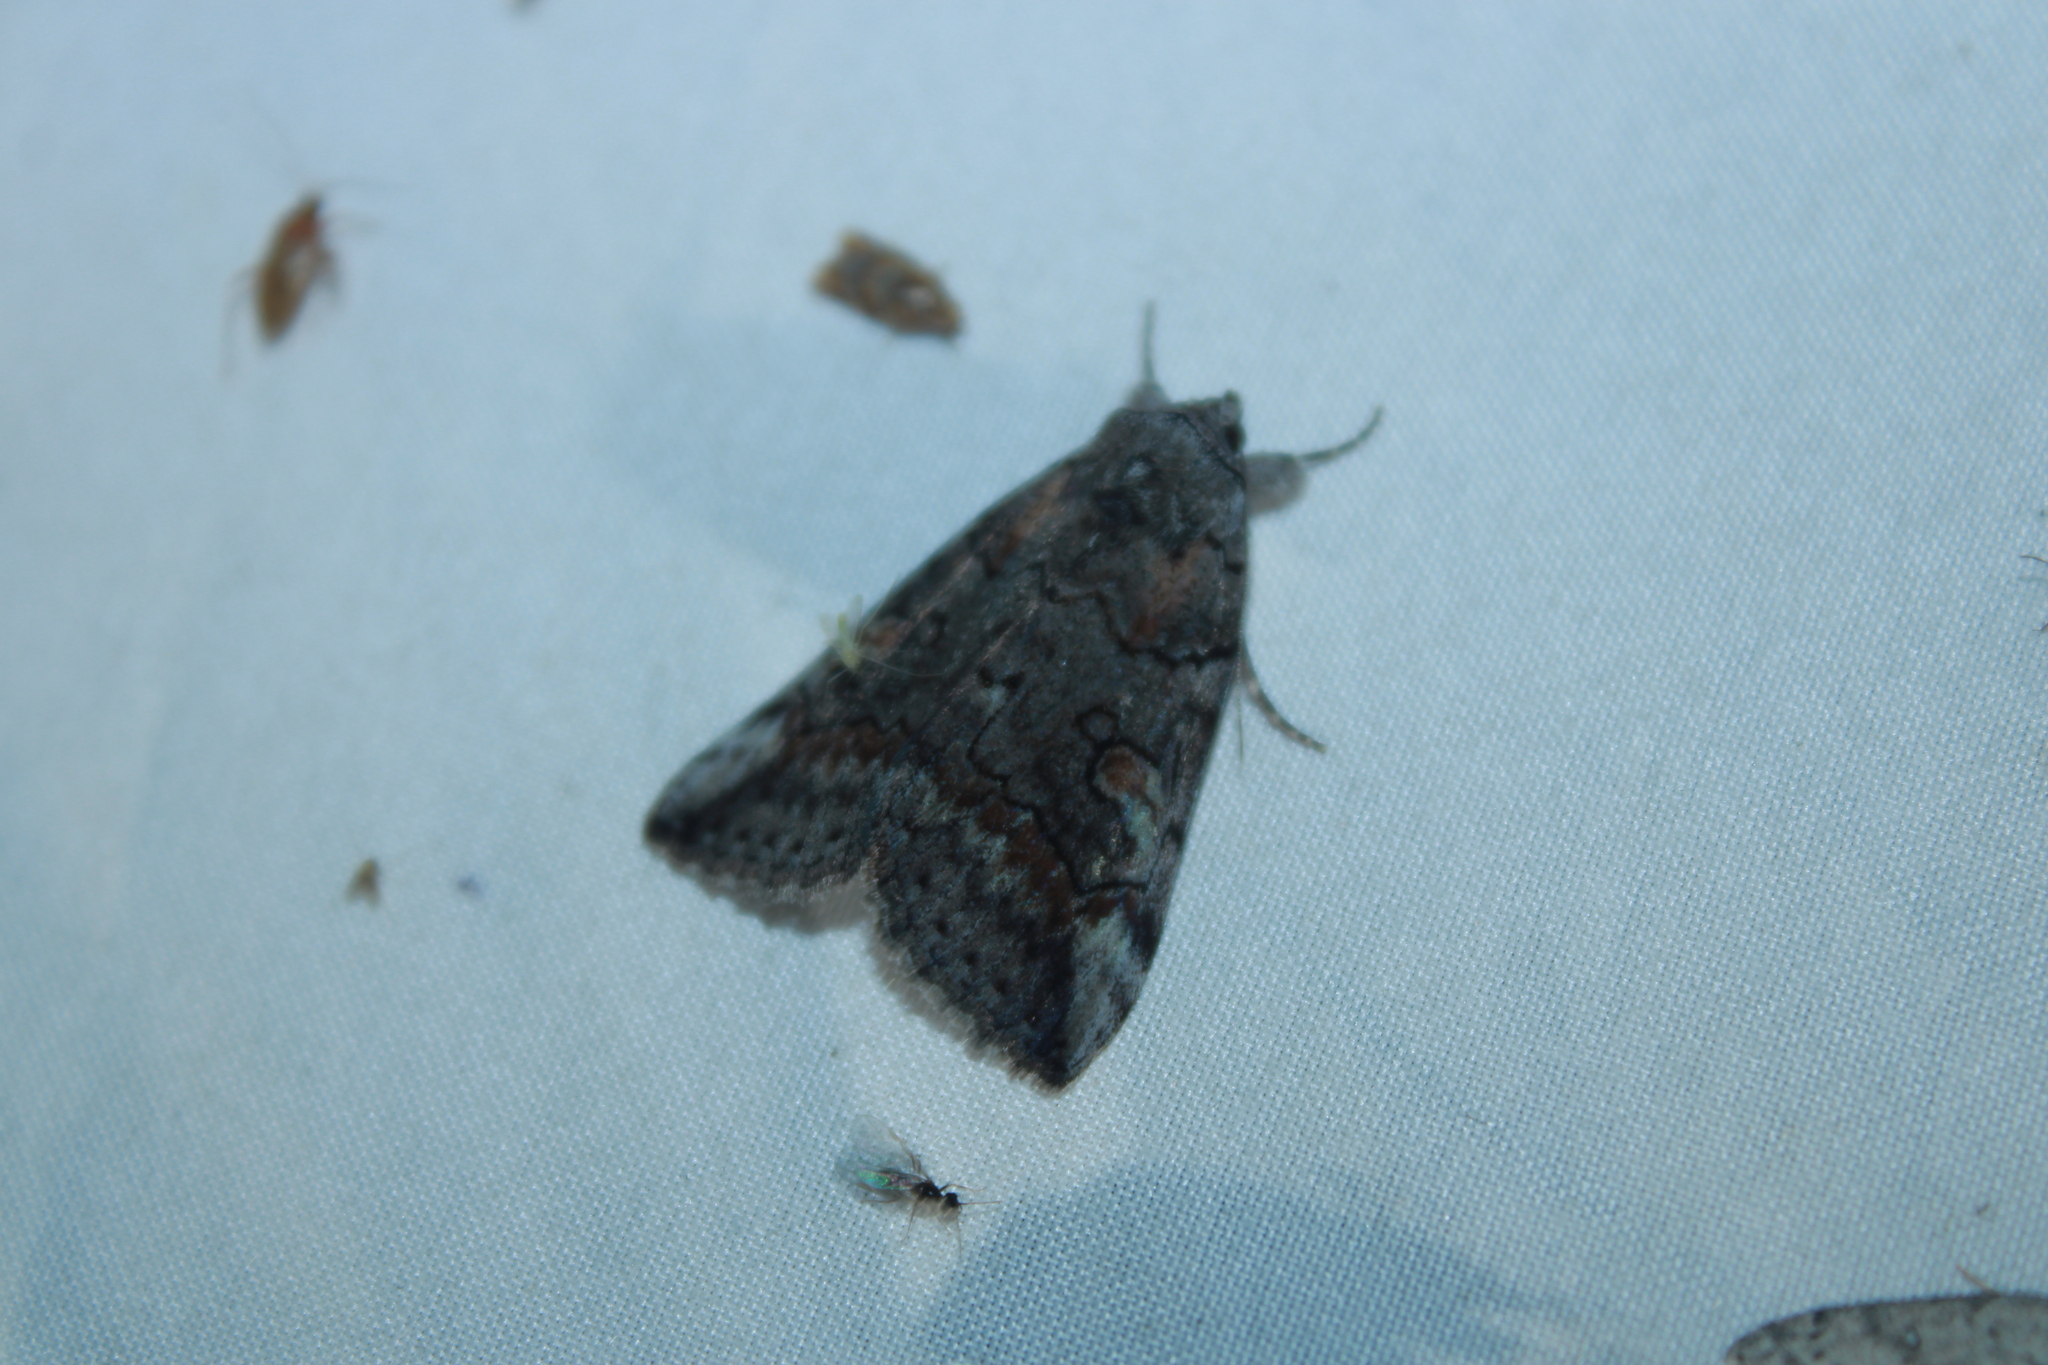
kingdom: Animalia
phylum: Arthropoda
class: Insecta
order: Lepidoptera
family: Erebidae
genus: Catocala
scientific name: Catocala similis
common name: Similar underwing
